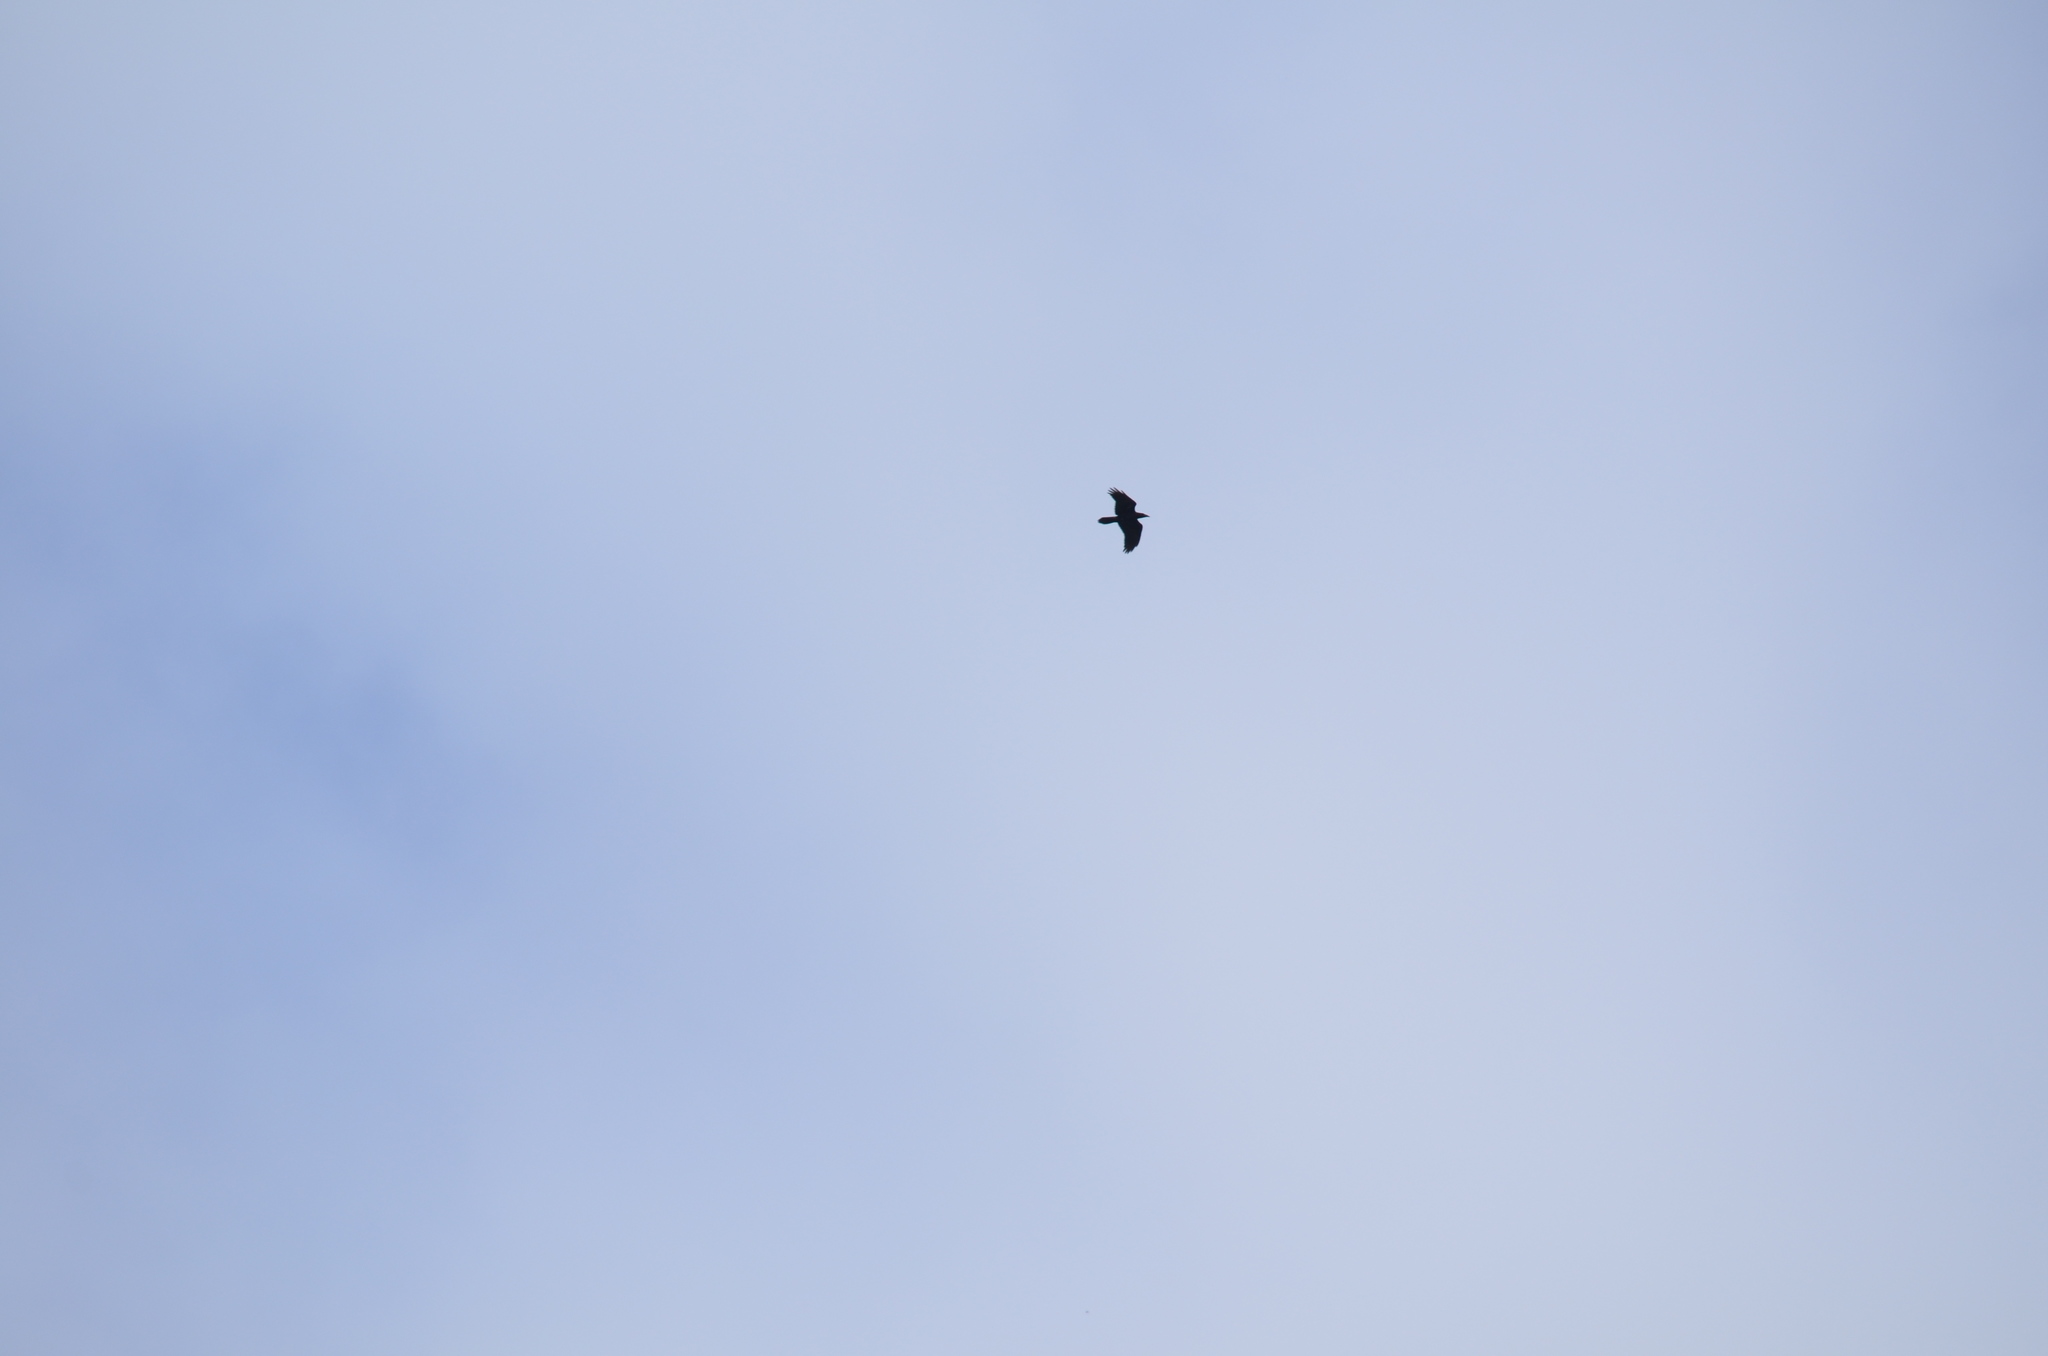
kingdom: Animalia
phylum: Chordata
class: Aves
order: Passeriformes
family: Corvidae
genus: Corvus
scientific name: Corvus corax
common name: Common raven
